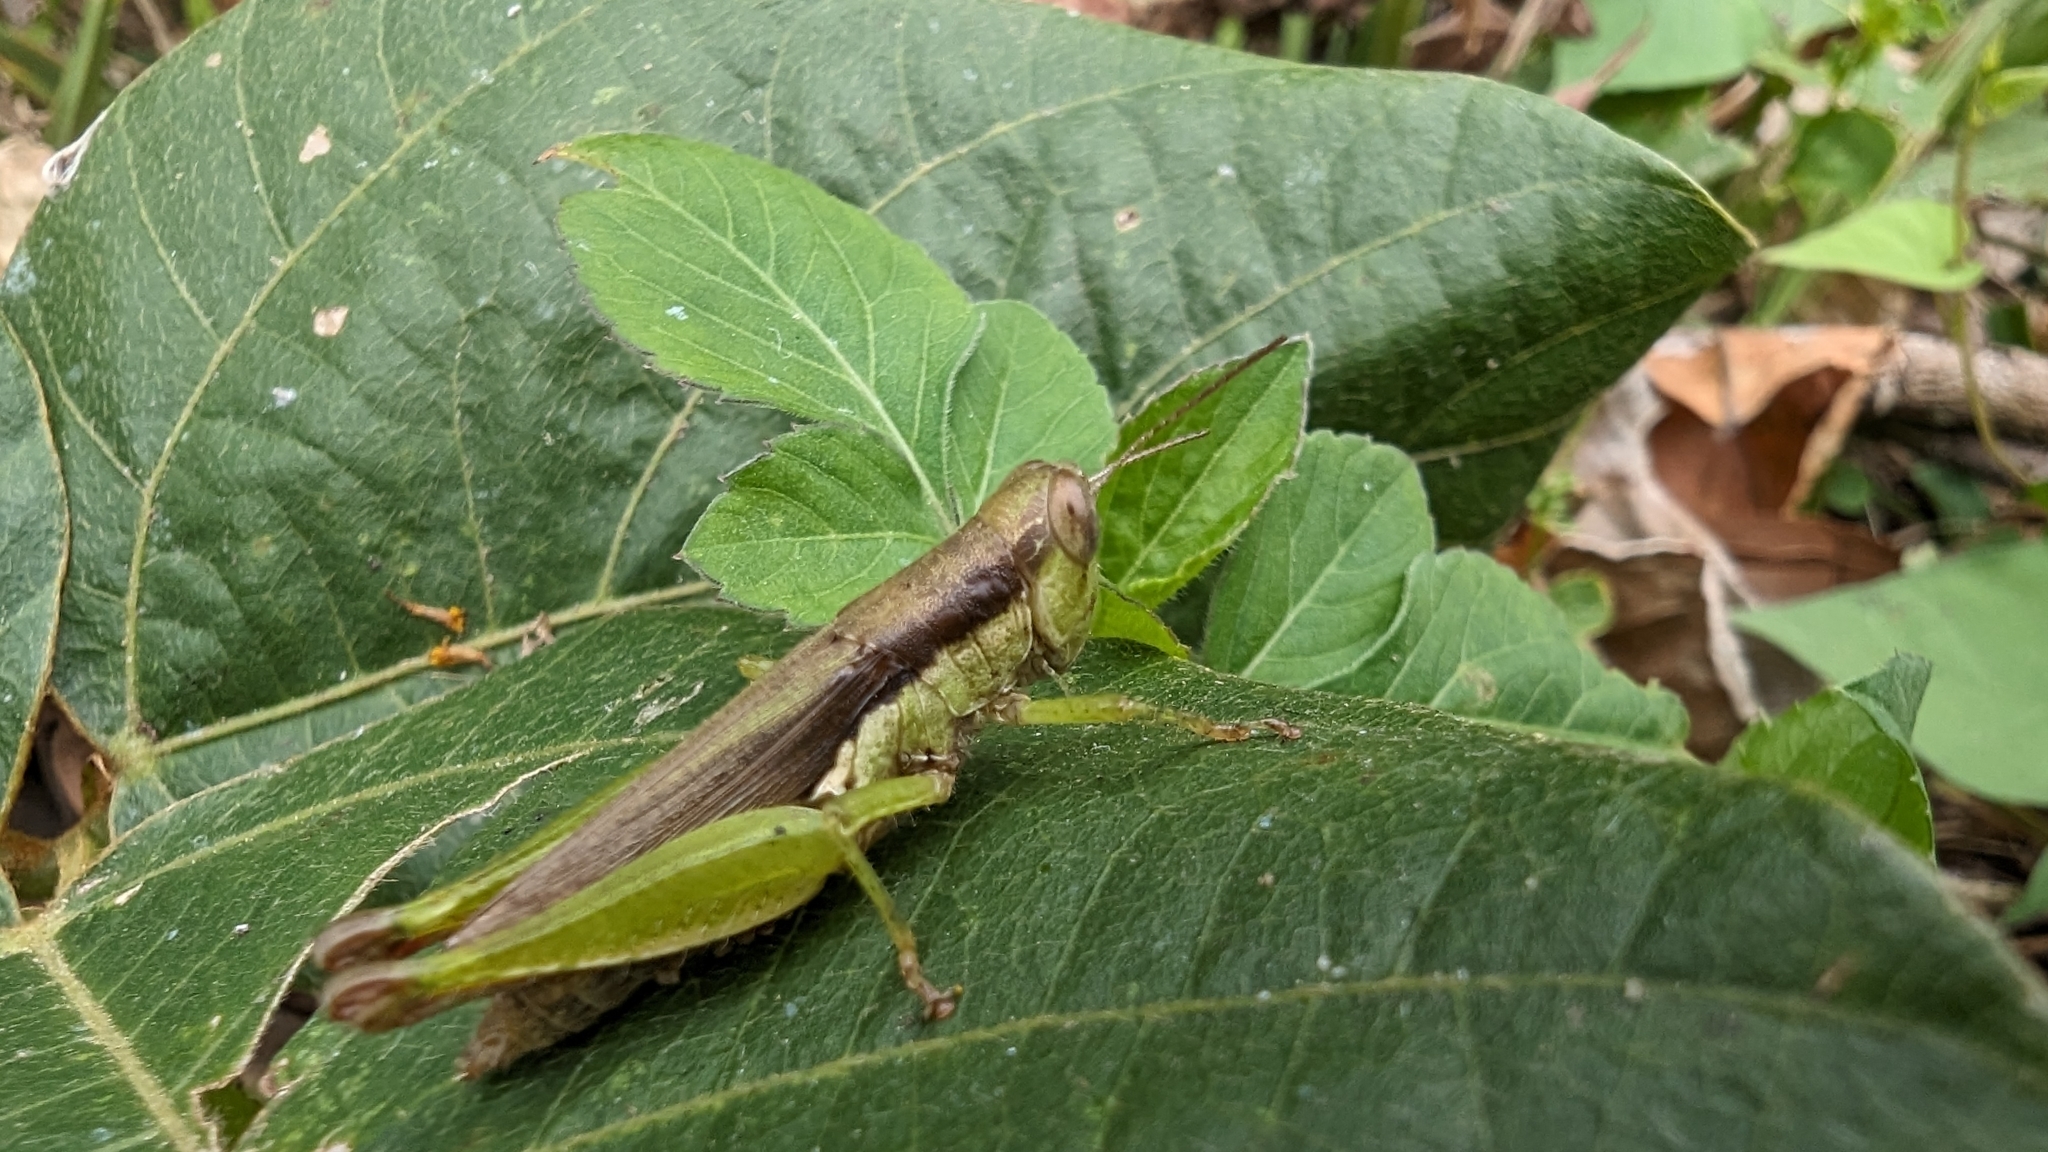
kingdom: Animalia
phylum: Arthropoda
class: Insecta
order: Orthoptera
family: Acrididae
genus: Pseudoxya
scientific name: Pseudoxya diminuta
